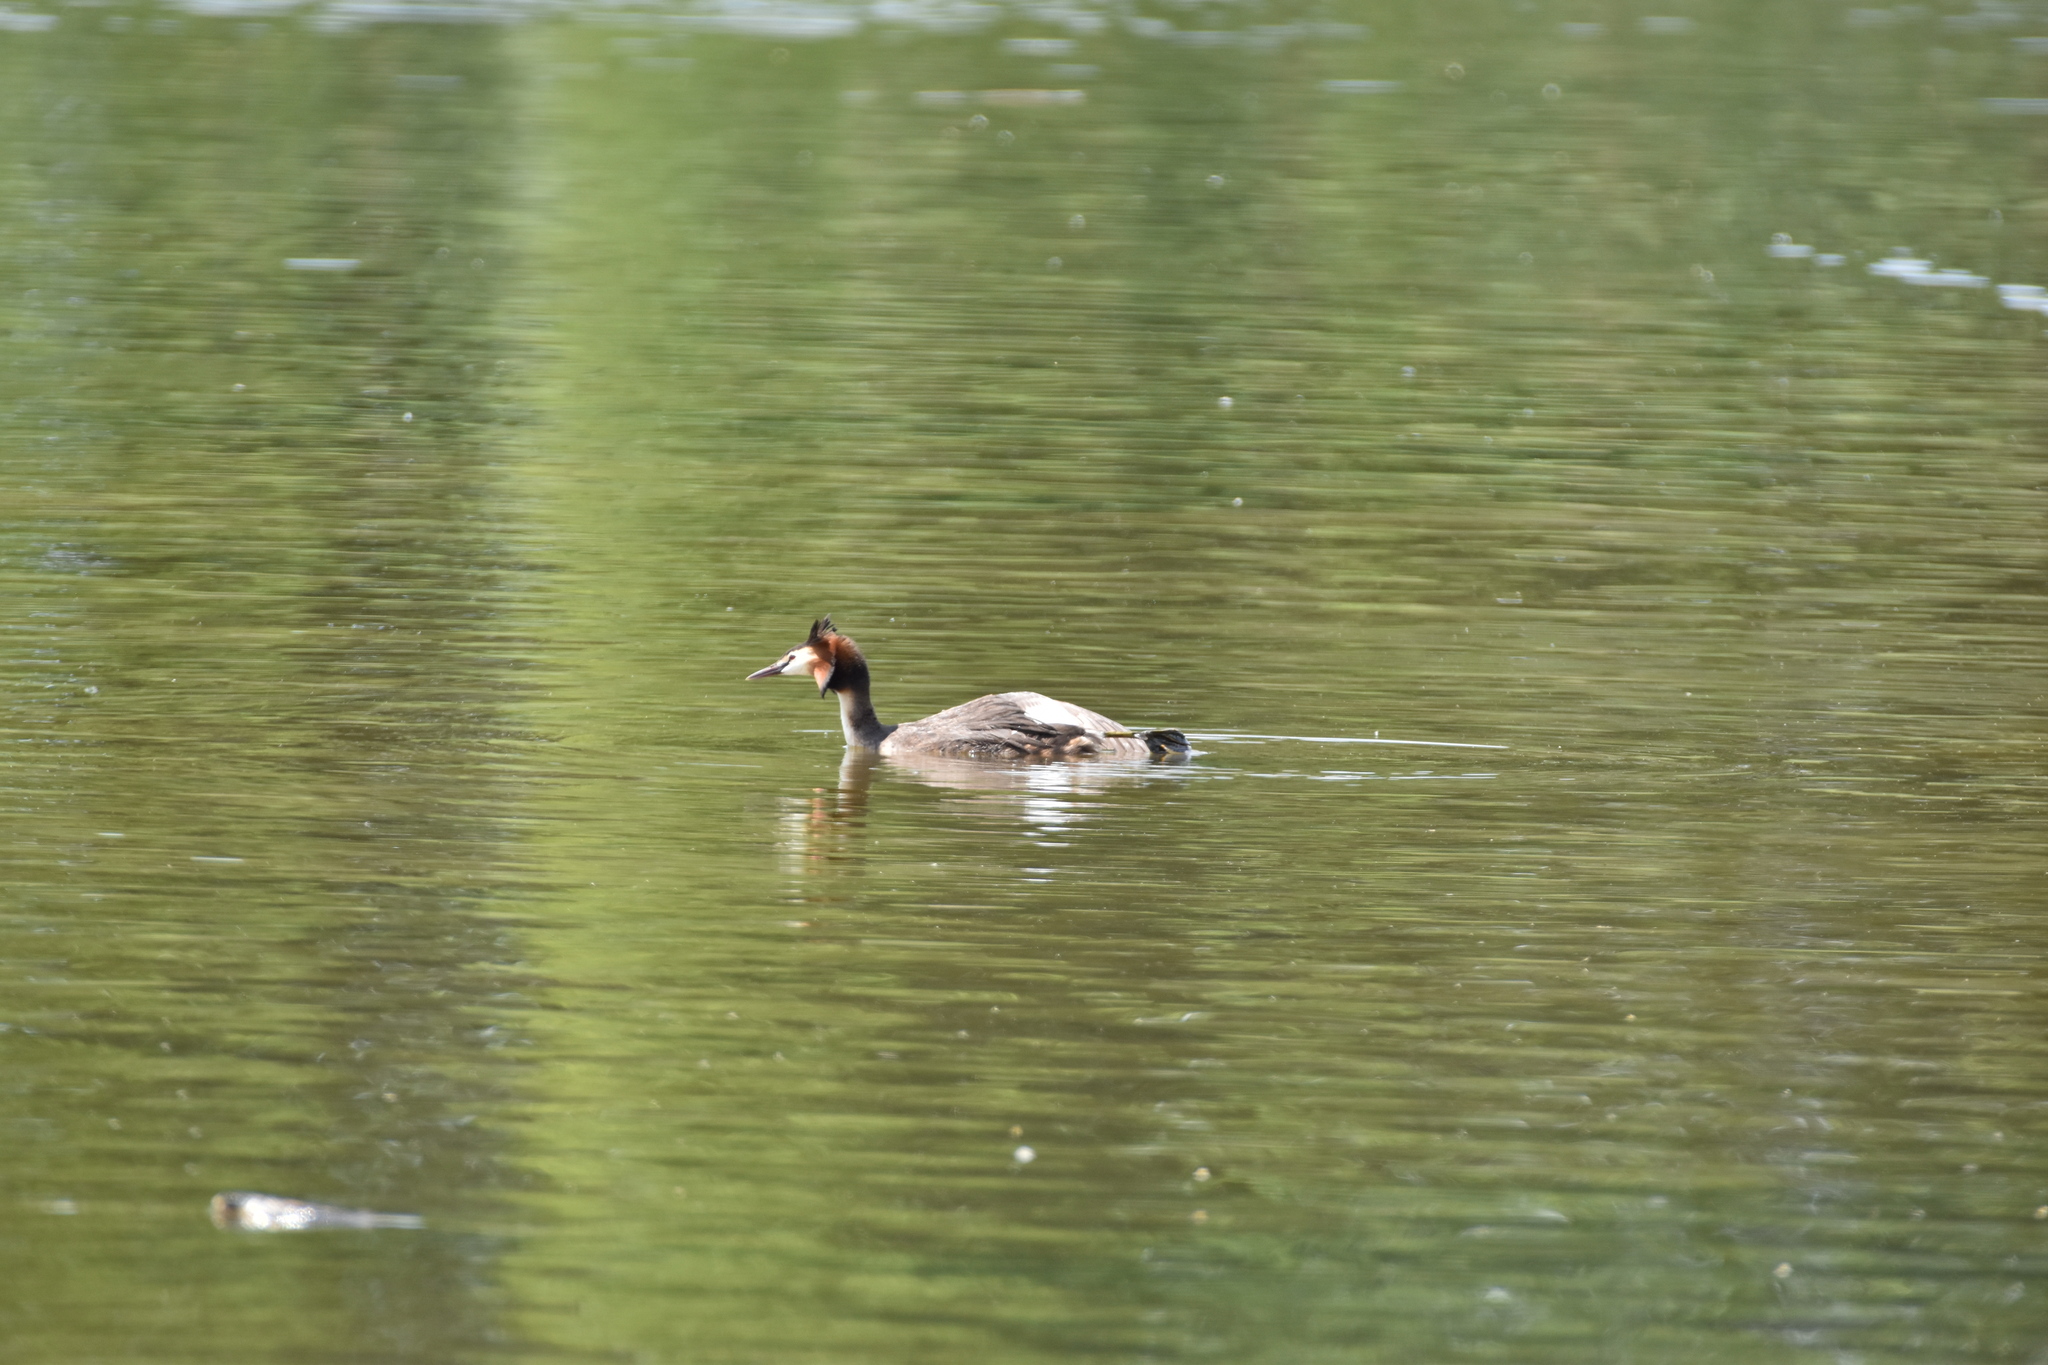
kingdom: Animalia
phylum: Chordata
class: Aves
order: Podicipediformes
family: Podicipedidae
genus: Podiceps
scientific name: Podiceps cristatus
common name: Great crested grebe
